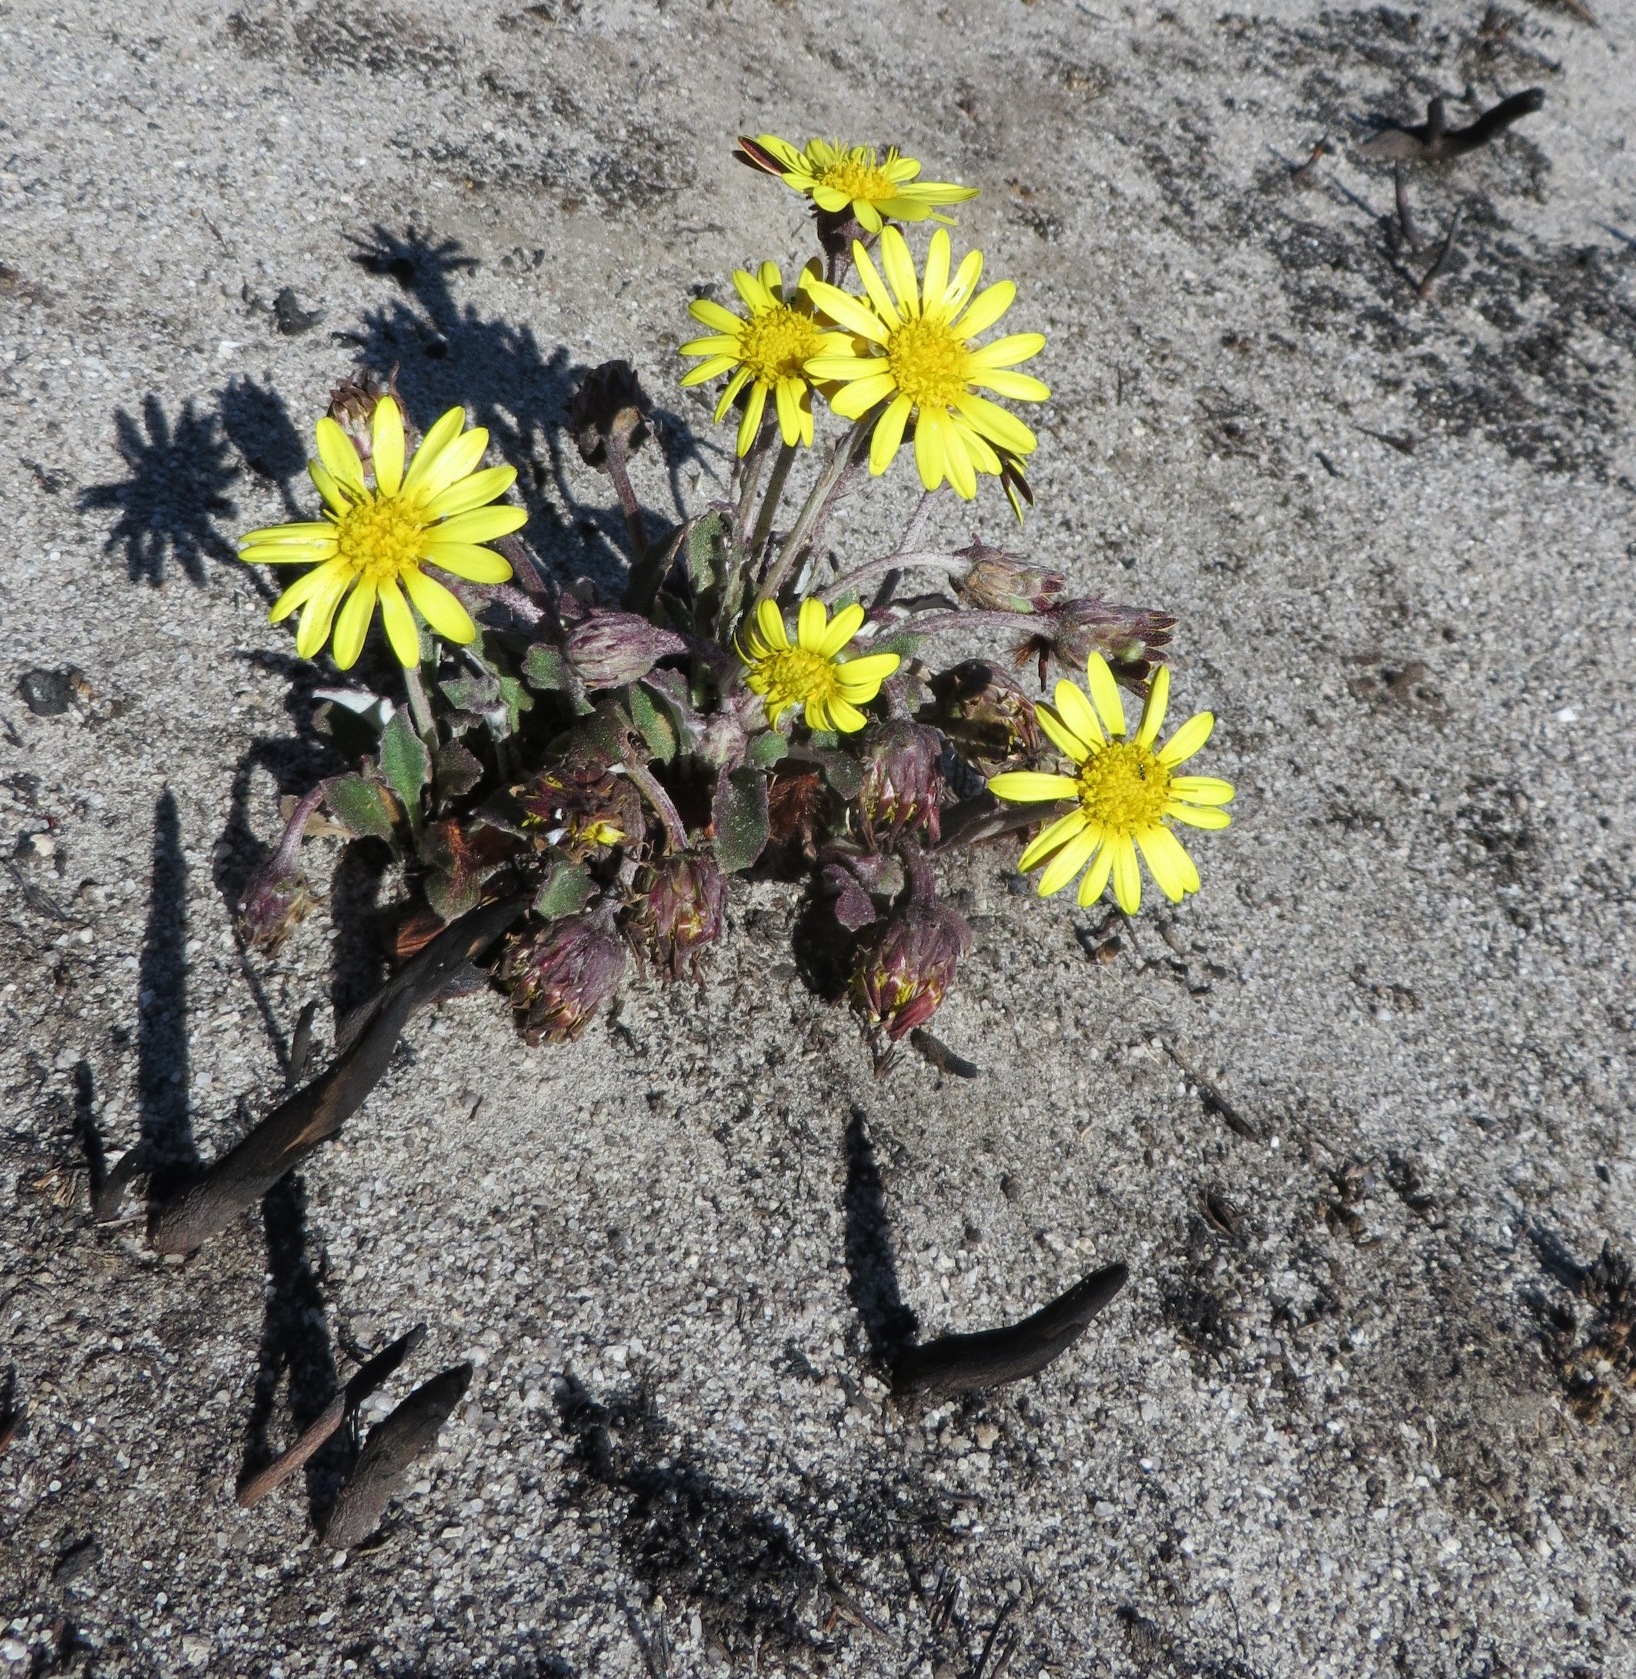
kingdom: Plantae
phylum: Tracheophyta
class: Magnoliopsida
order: Asterales
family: Asteraceae
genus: Haplocarpha
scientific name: Haplocarpha lanata
